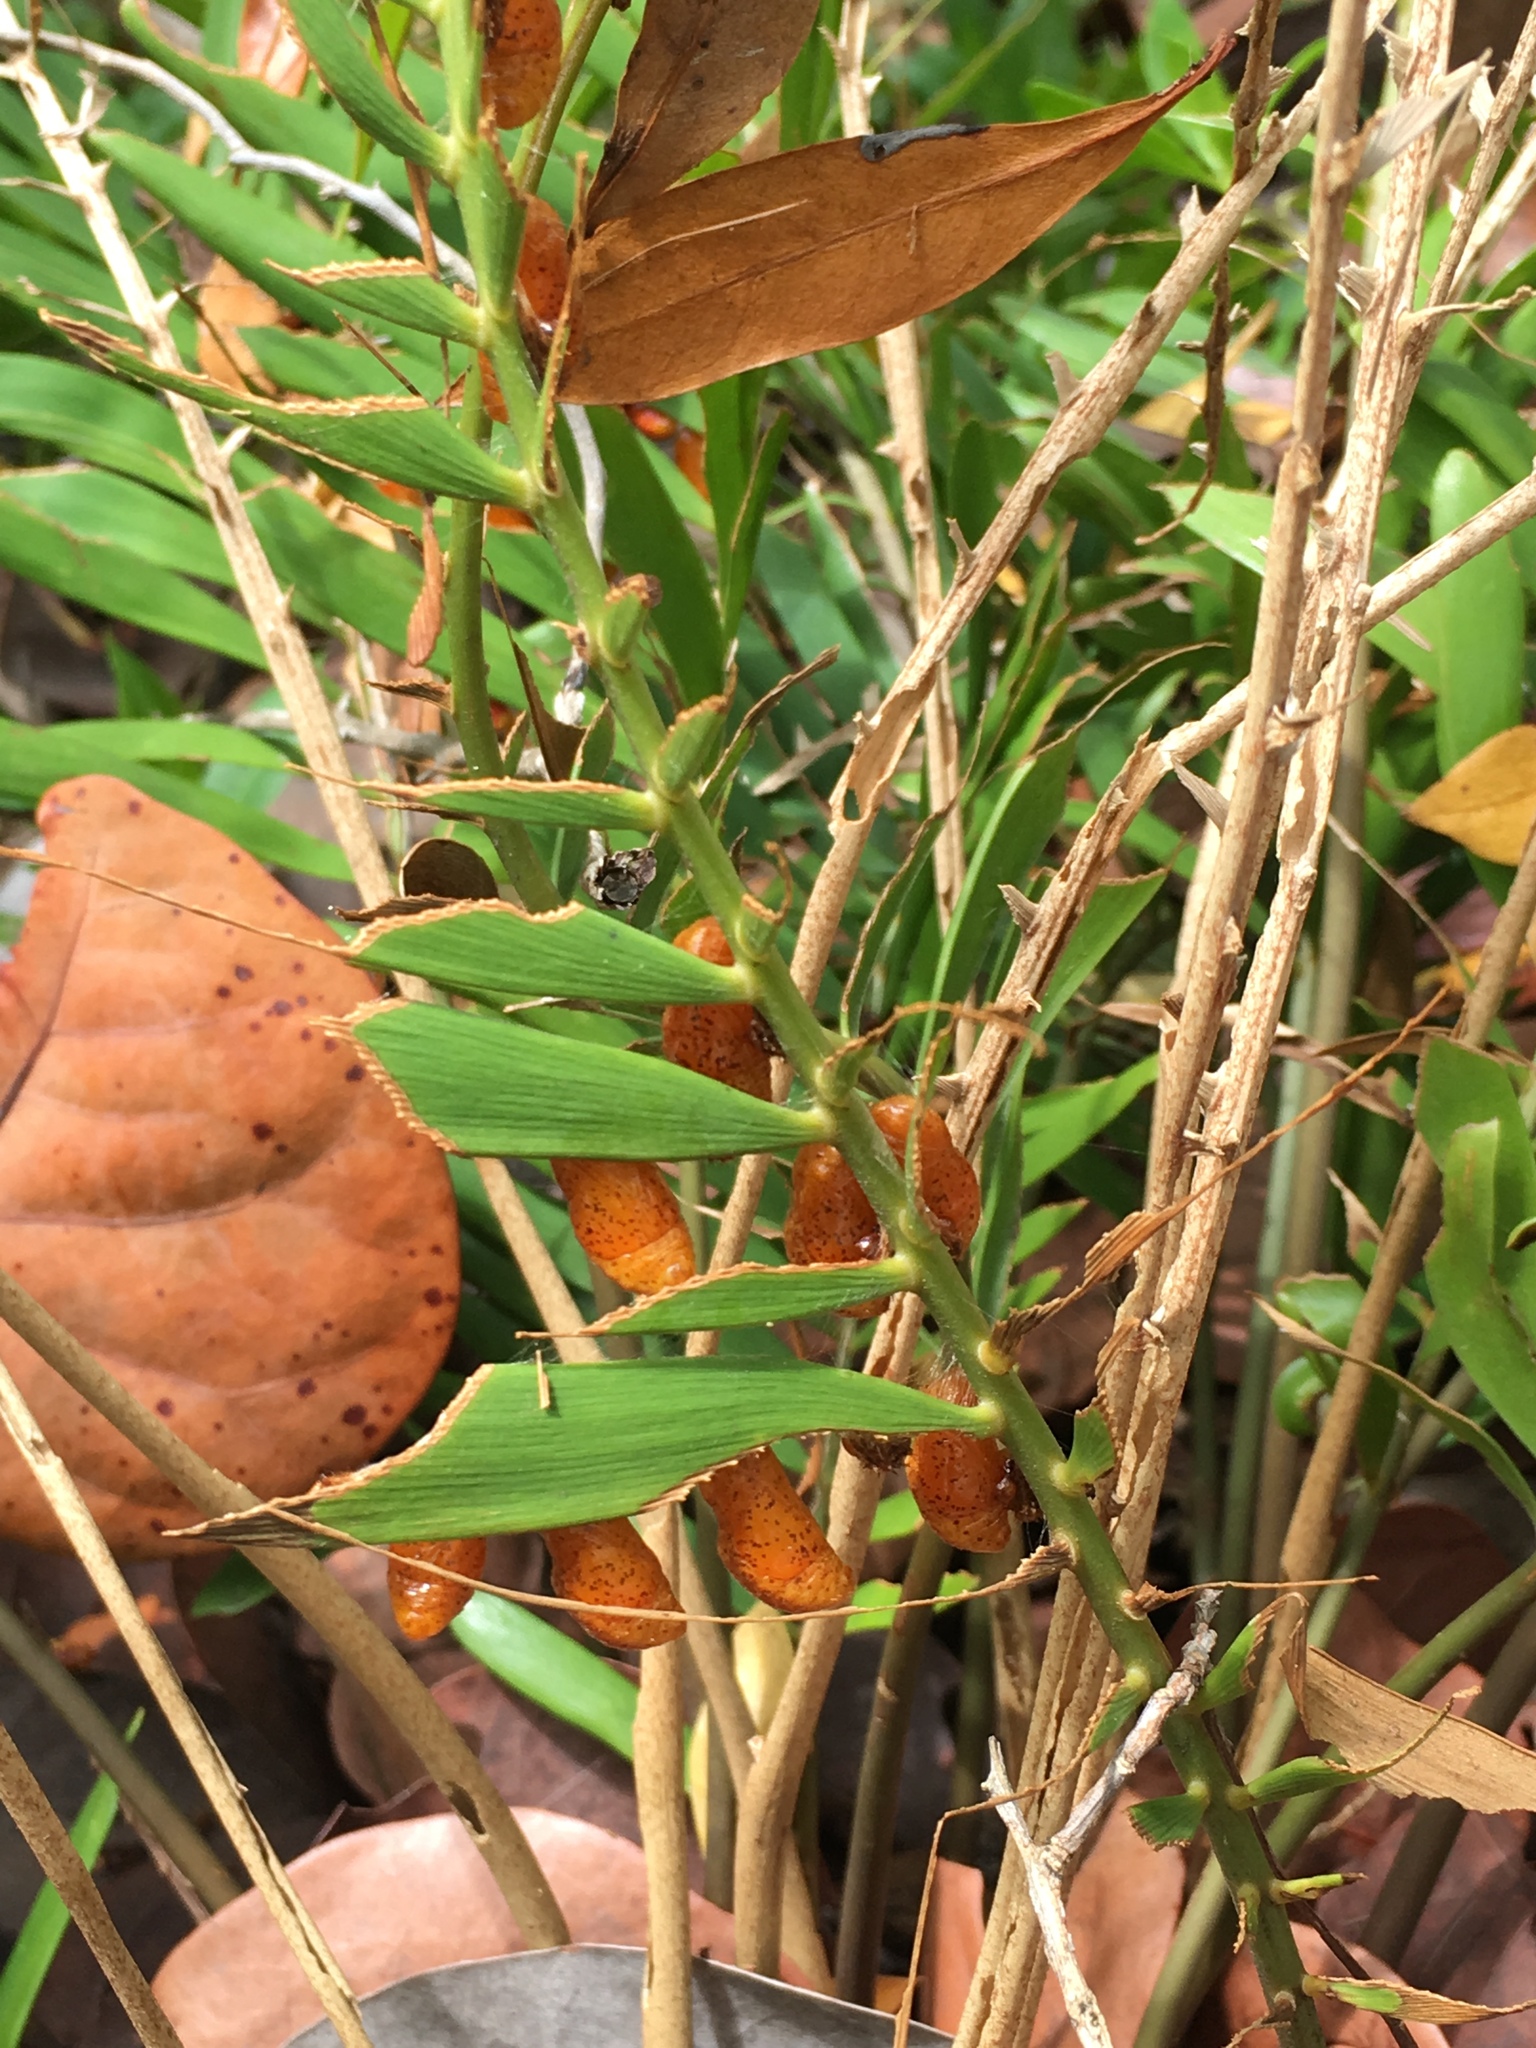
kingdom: Animalia
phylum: Arthropoda
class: Insecta
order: Lepidoptera
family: Lycaenidae
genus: Eumaeus
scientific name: Eumaeus atala
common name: Atala
